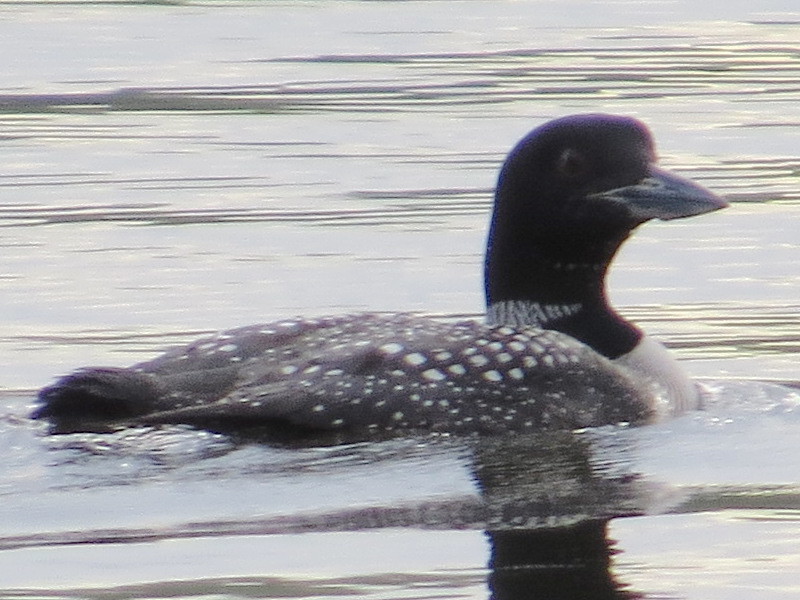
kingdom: Animalia
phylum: Chordata
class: Aves
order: Gaviiformes
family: Gaviidae
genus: Gavia
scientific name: Gavia immer
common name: Common loon
